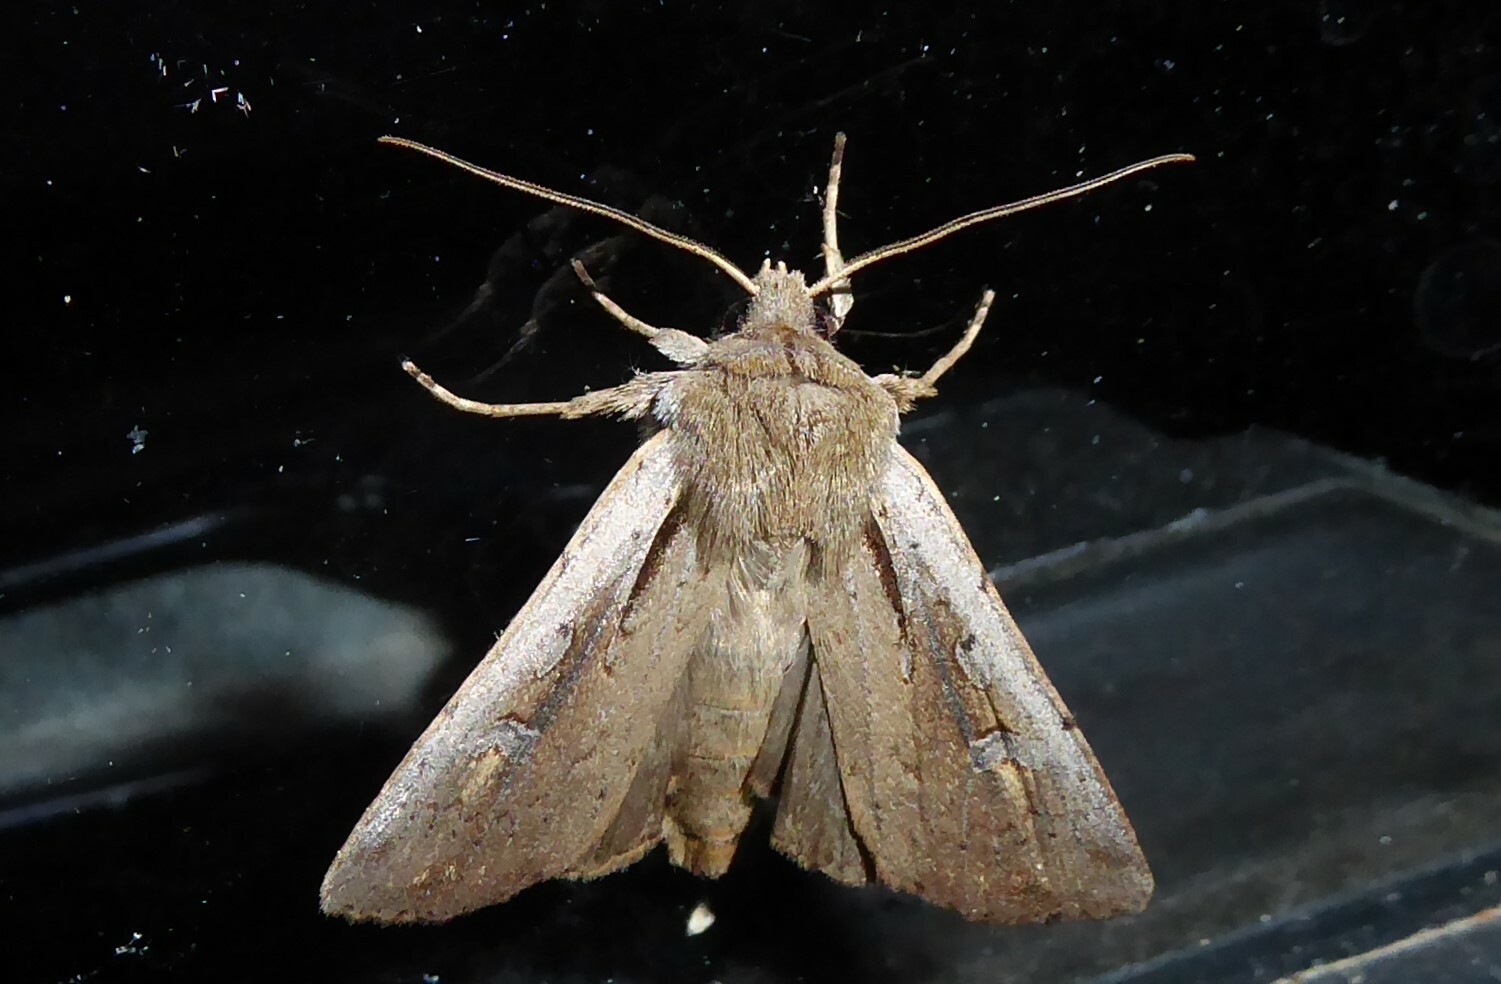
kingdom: Animalia
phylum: Arthropoda
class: Insecta
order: Lepidoptera
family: Noctuidae
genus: Ichneutica
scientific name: Ichneutica atristriga
